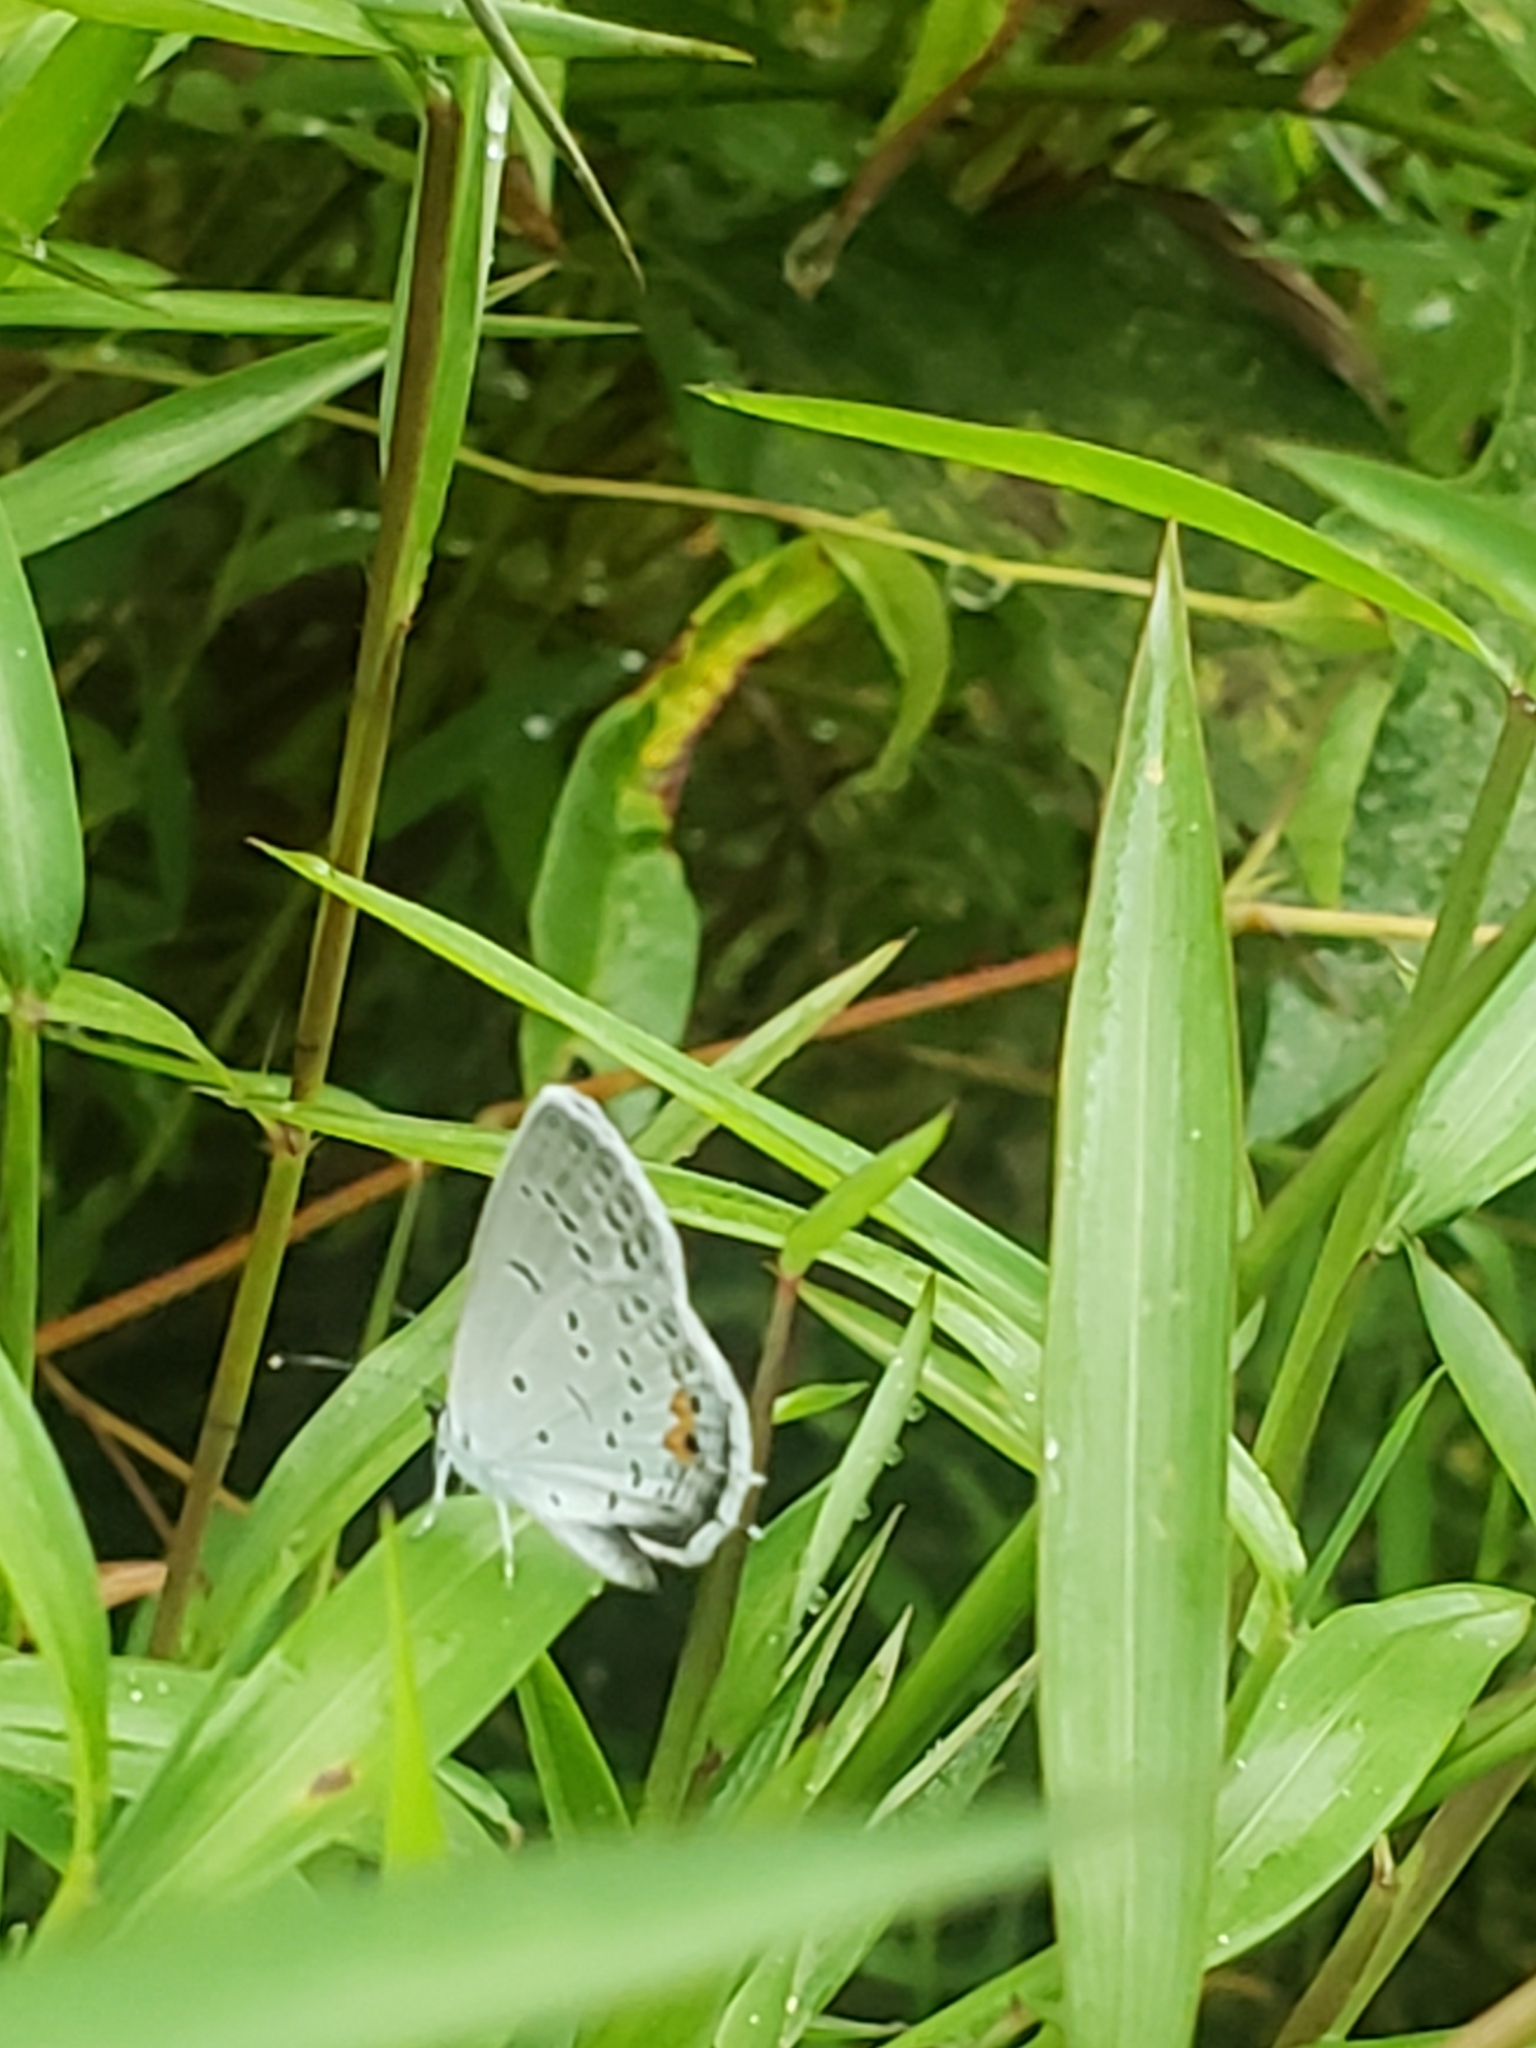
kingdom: Animalia
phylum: Arthropoda
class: Insecta
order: Lepidoptera
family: Lycaenidae
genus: Elkalyce
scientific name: Elkalyce comyntas
